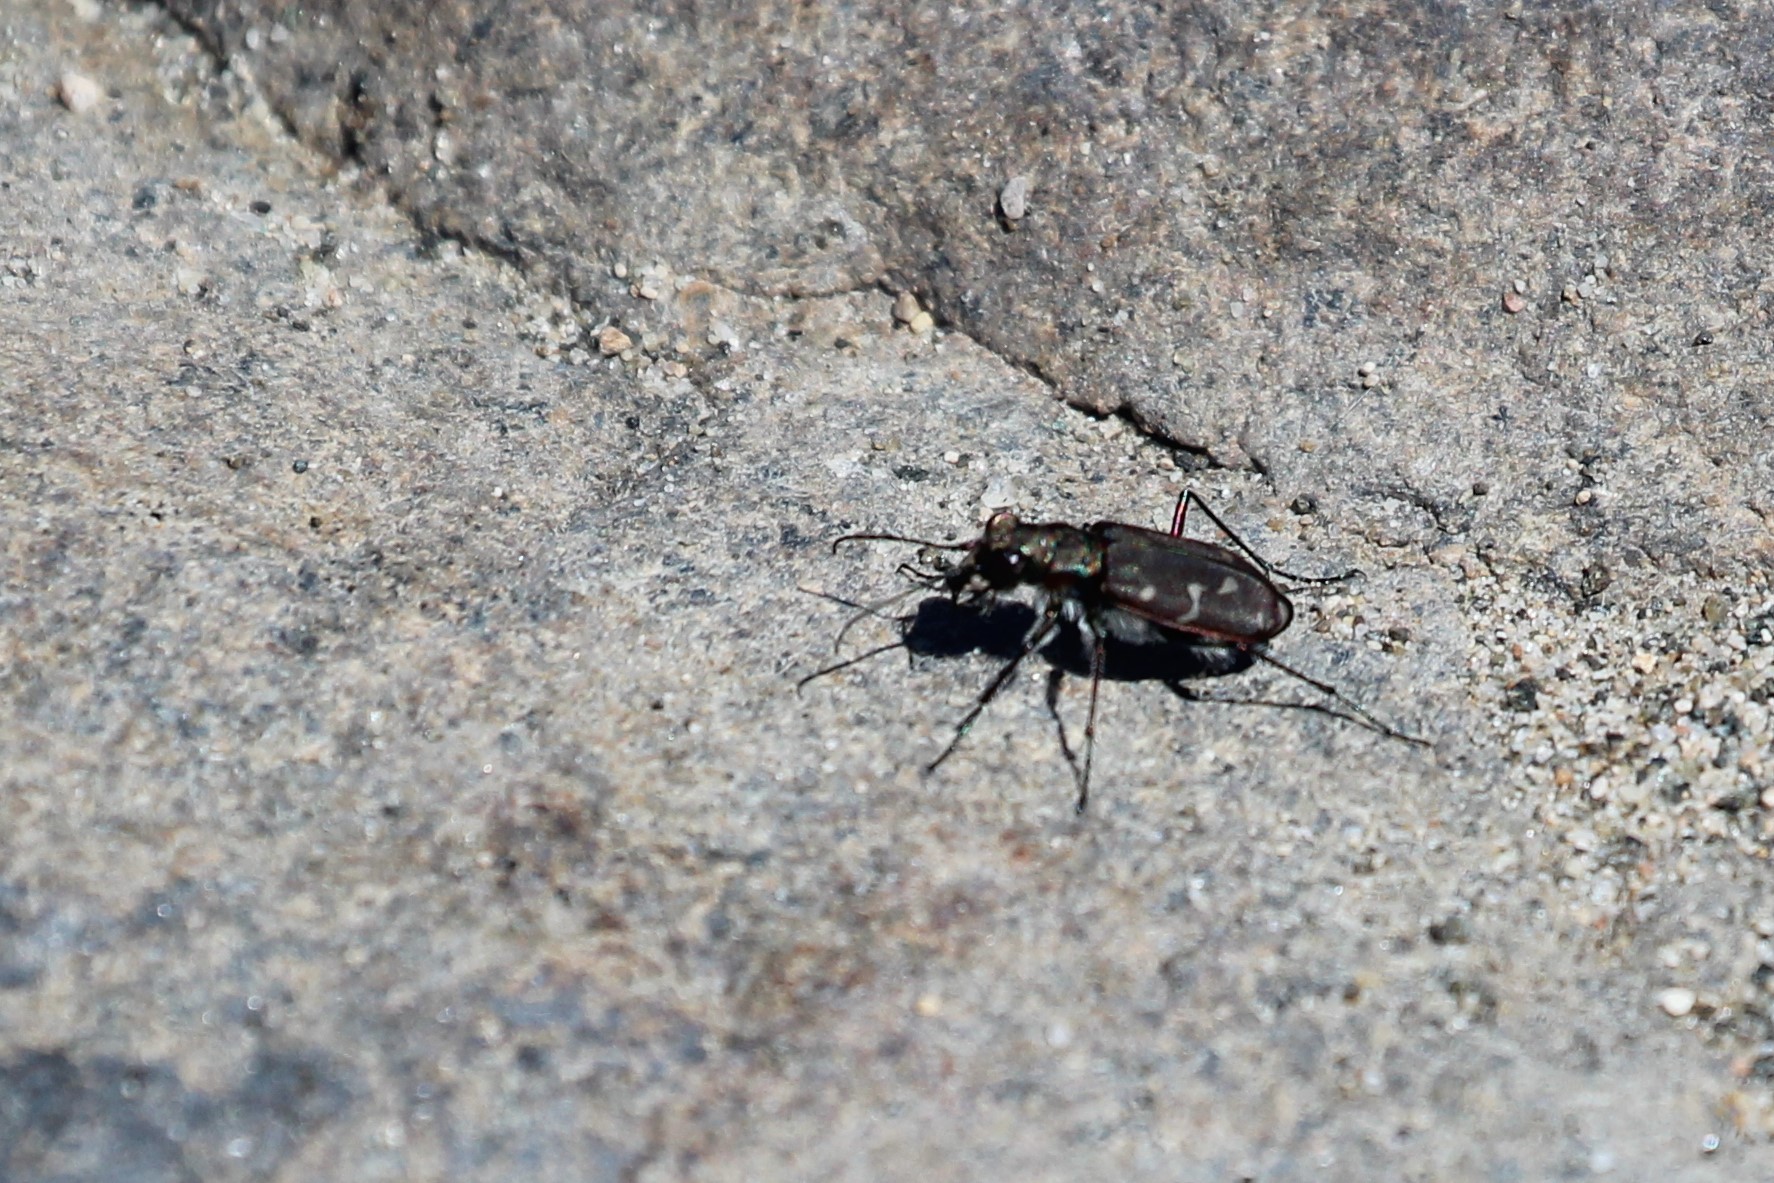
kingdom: Animalia
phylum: Arthropoda
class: Insecta
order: Coleoptera
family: Carabidae
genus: Cicindela
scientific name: Cicindela duodecimguttata
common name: Twelve-spotted tiger beetle
